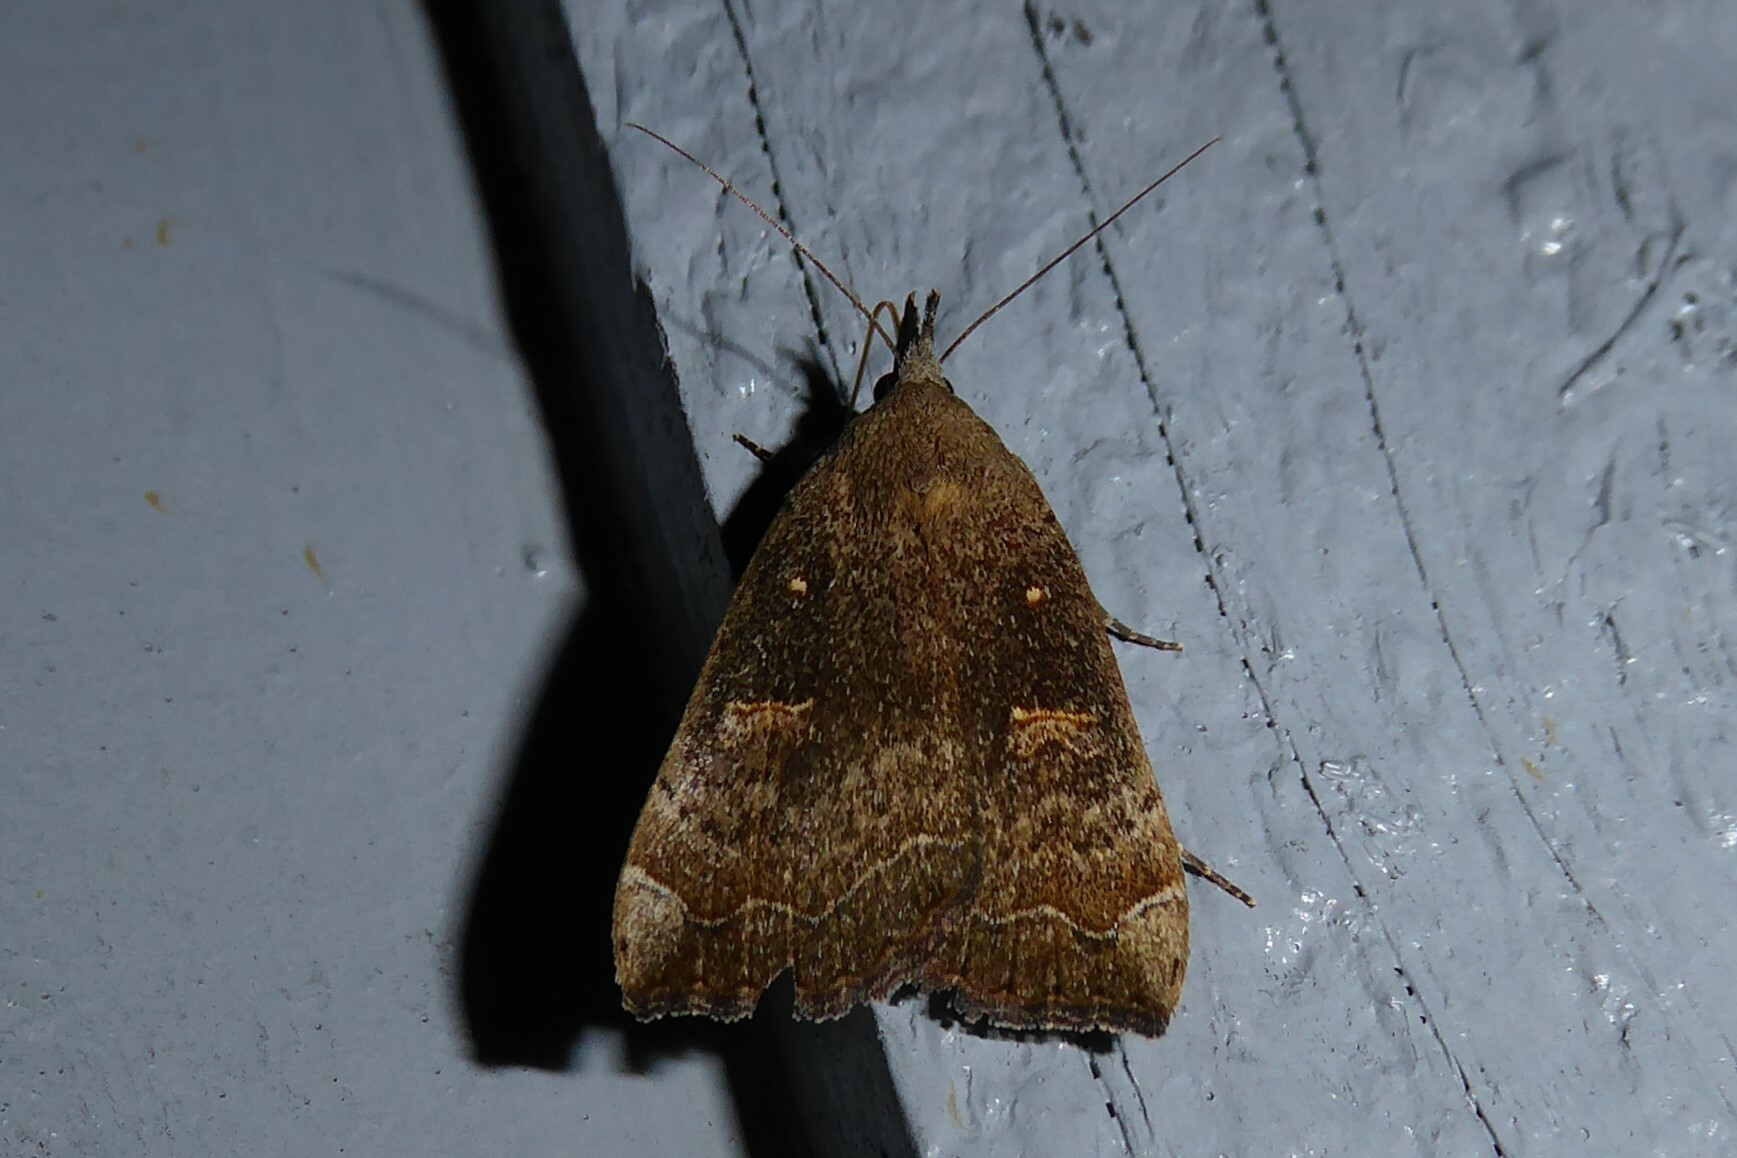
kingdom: Animalia
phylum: Arthropoda
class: Insecta
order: Lepidoptera
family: Erebidae
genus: Rhapsa
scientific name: Rhapsa scotosialis
